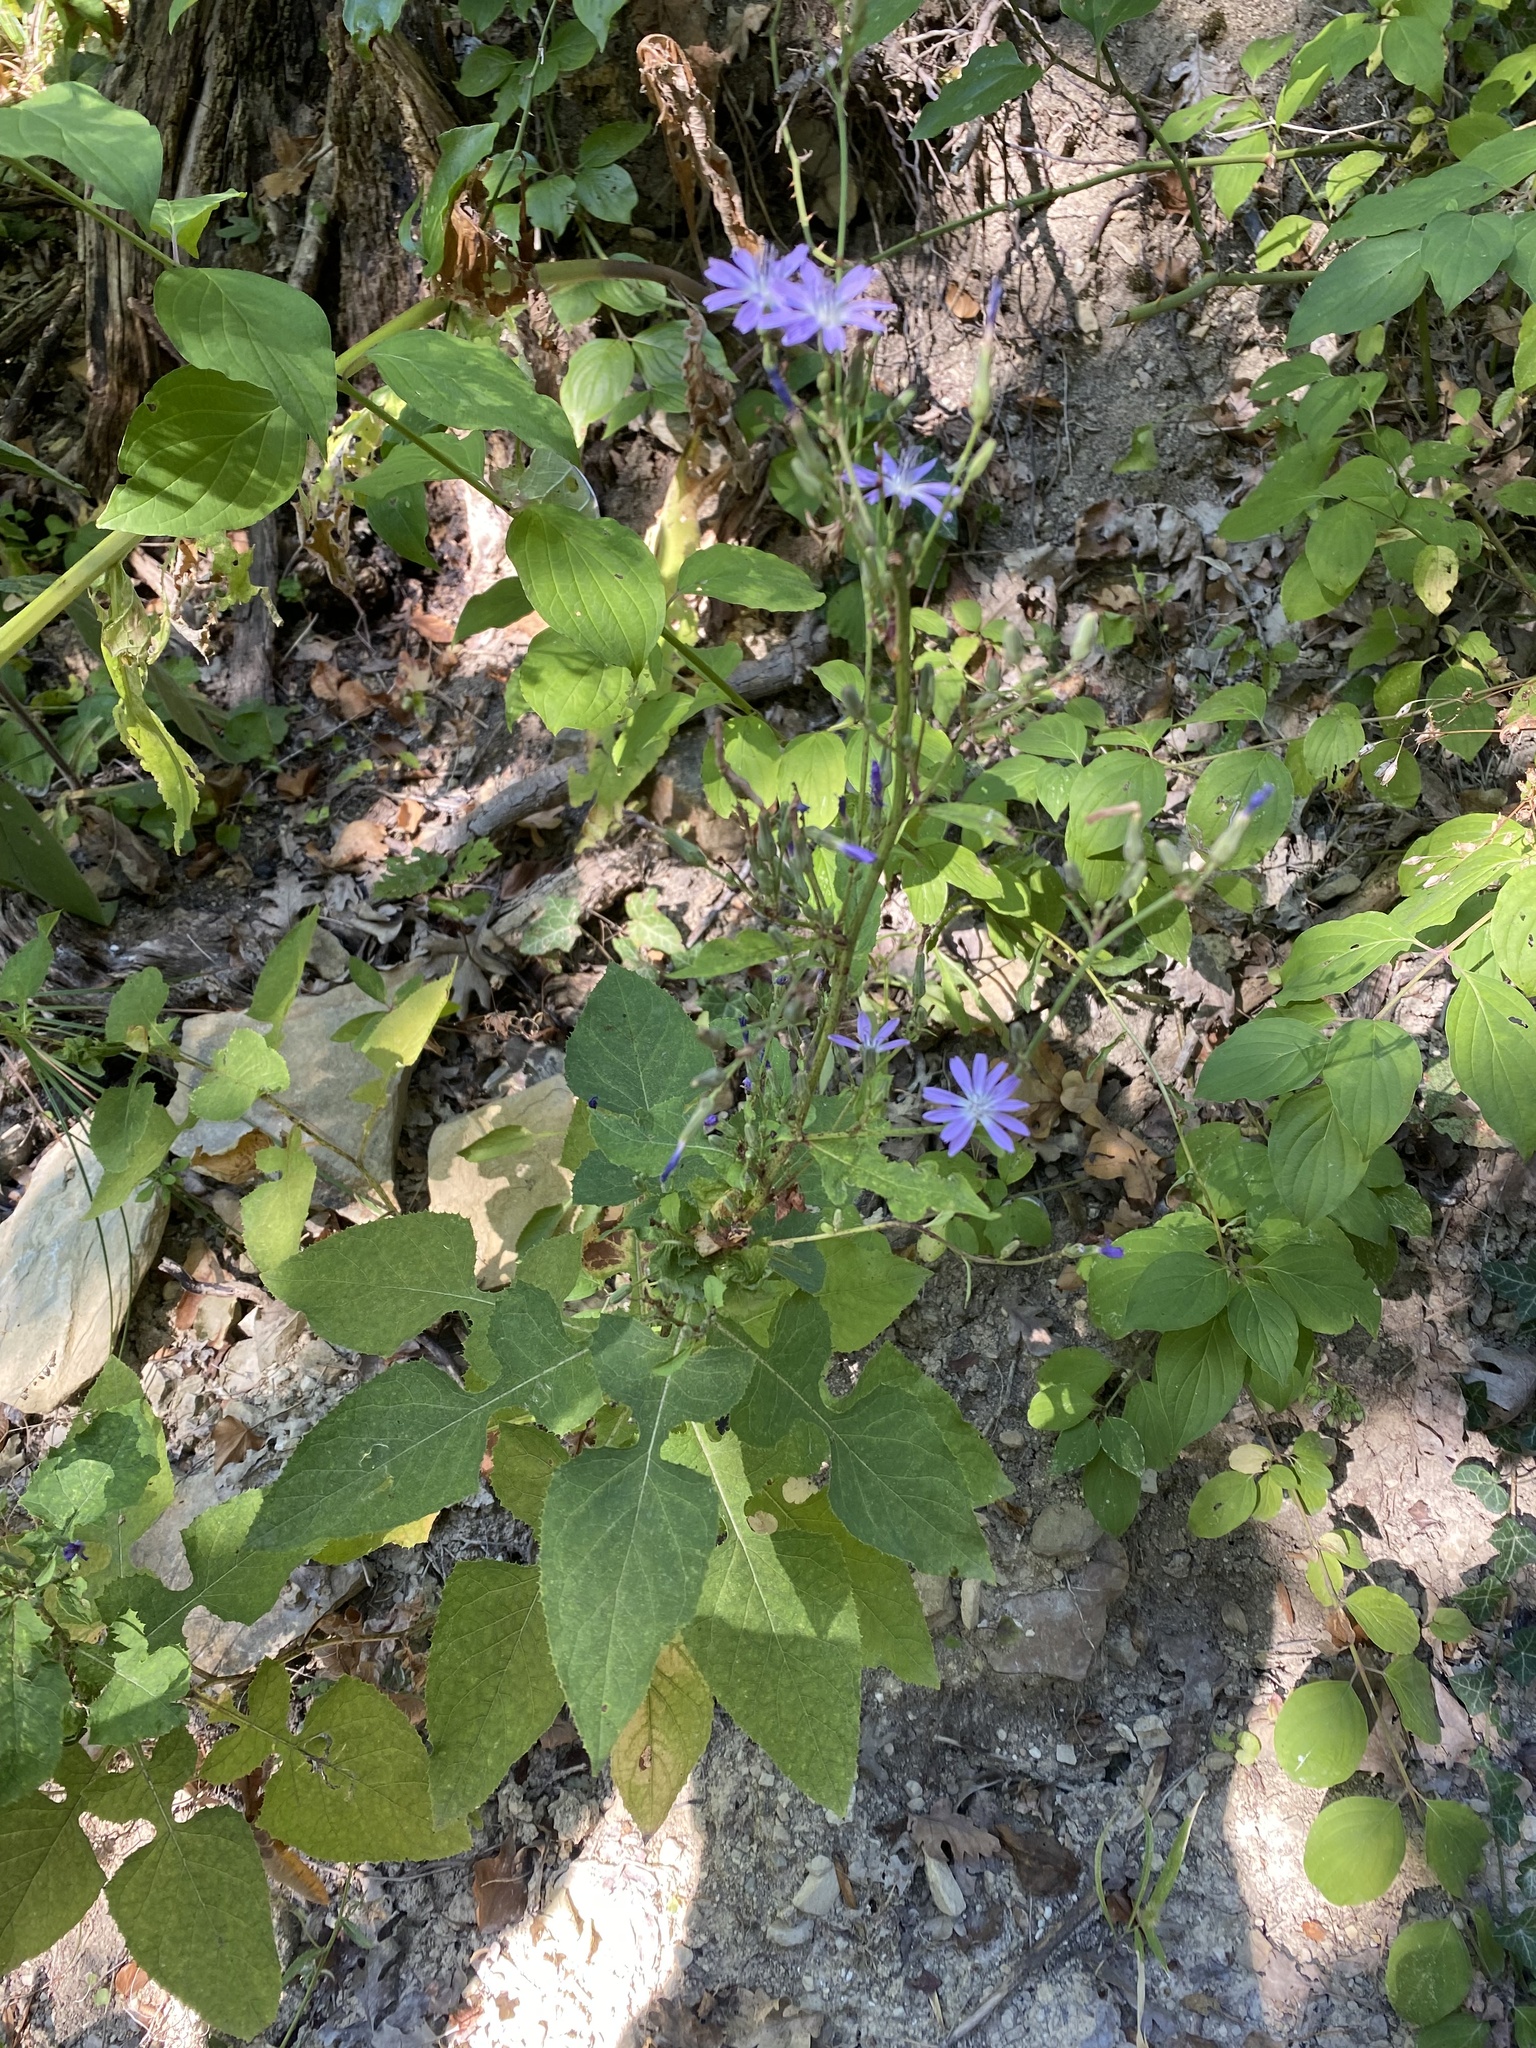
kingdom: Plantae
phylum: Tracheophyta
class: Magnoliopsida
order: Asterales
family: Asteraceae
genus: Cicerbita
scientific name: Cicerbita prenanthoides
